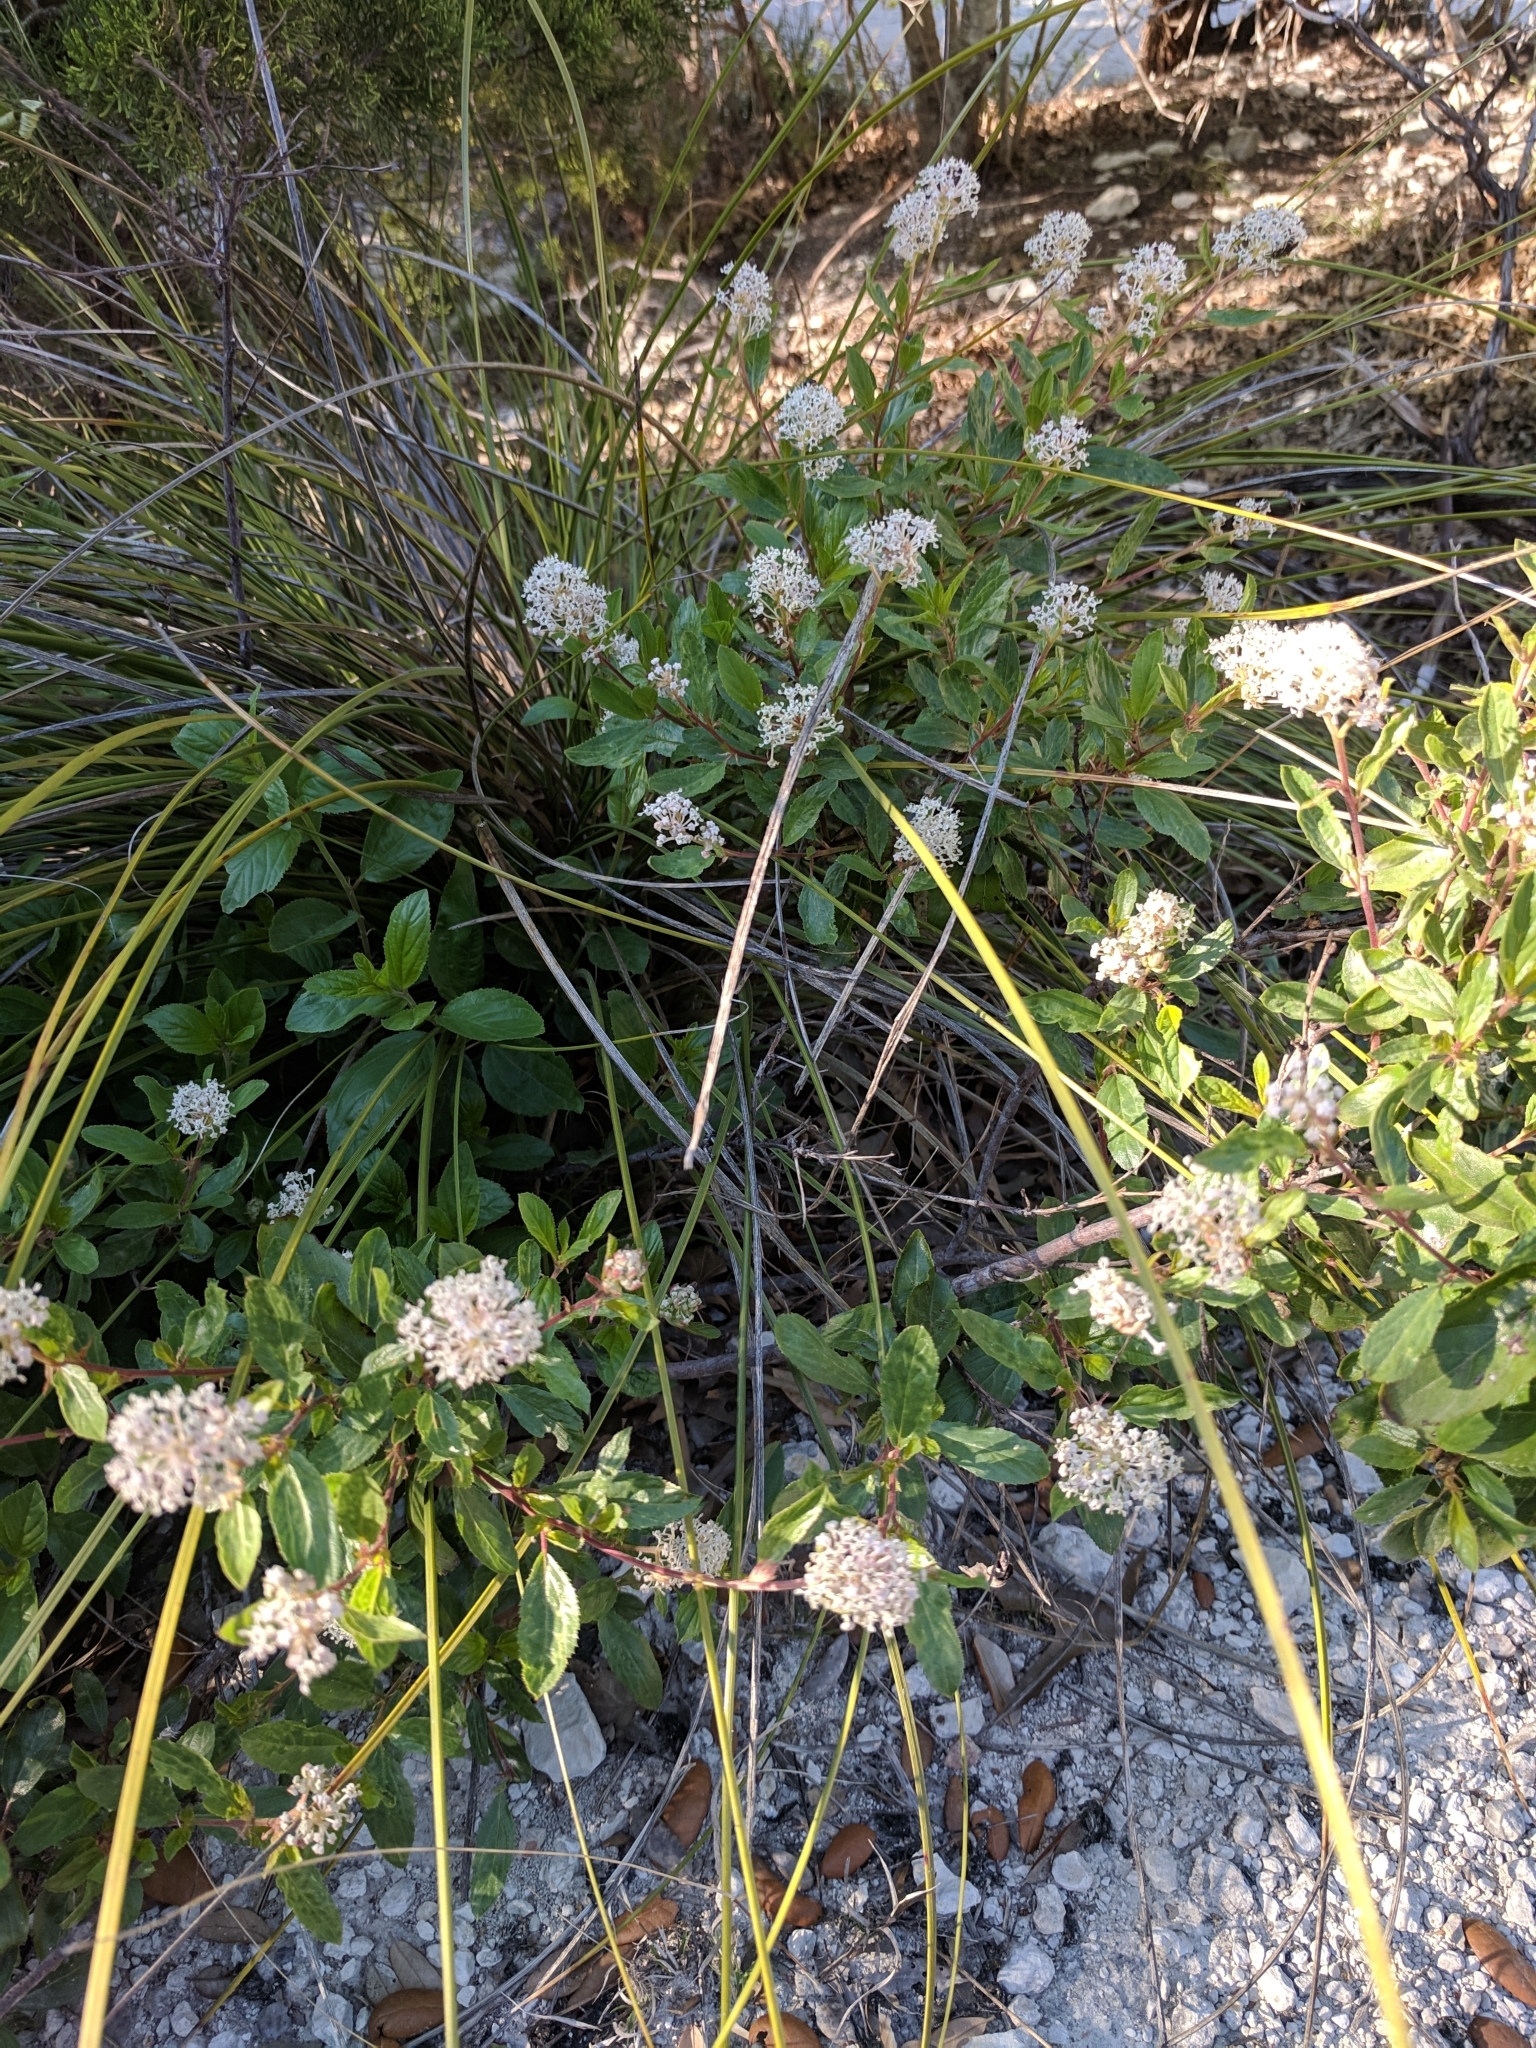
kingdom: Plantae
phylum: Tracheophyta
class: Magnoliopsida
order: Rosales
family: Rhamnaceae
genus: Ceanothus
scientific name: Ceanothus herbaceus
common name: Inland ceanothus
